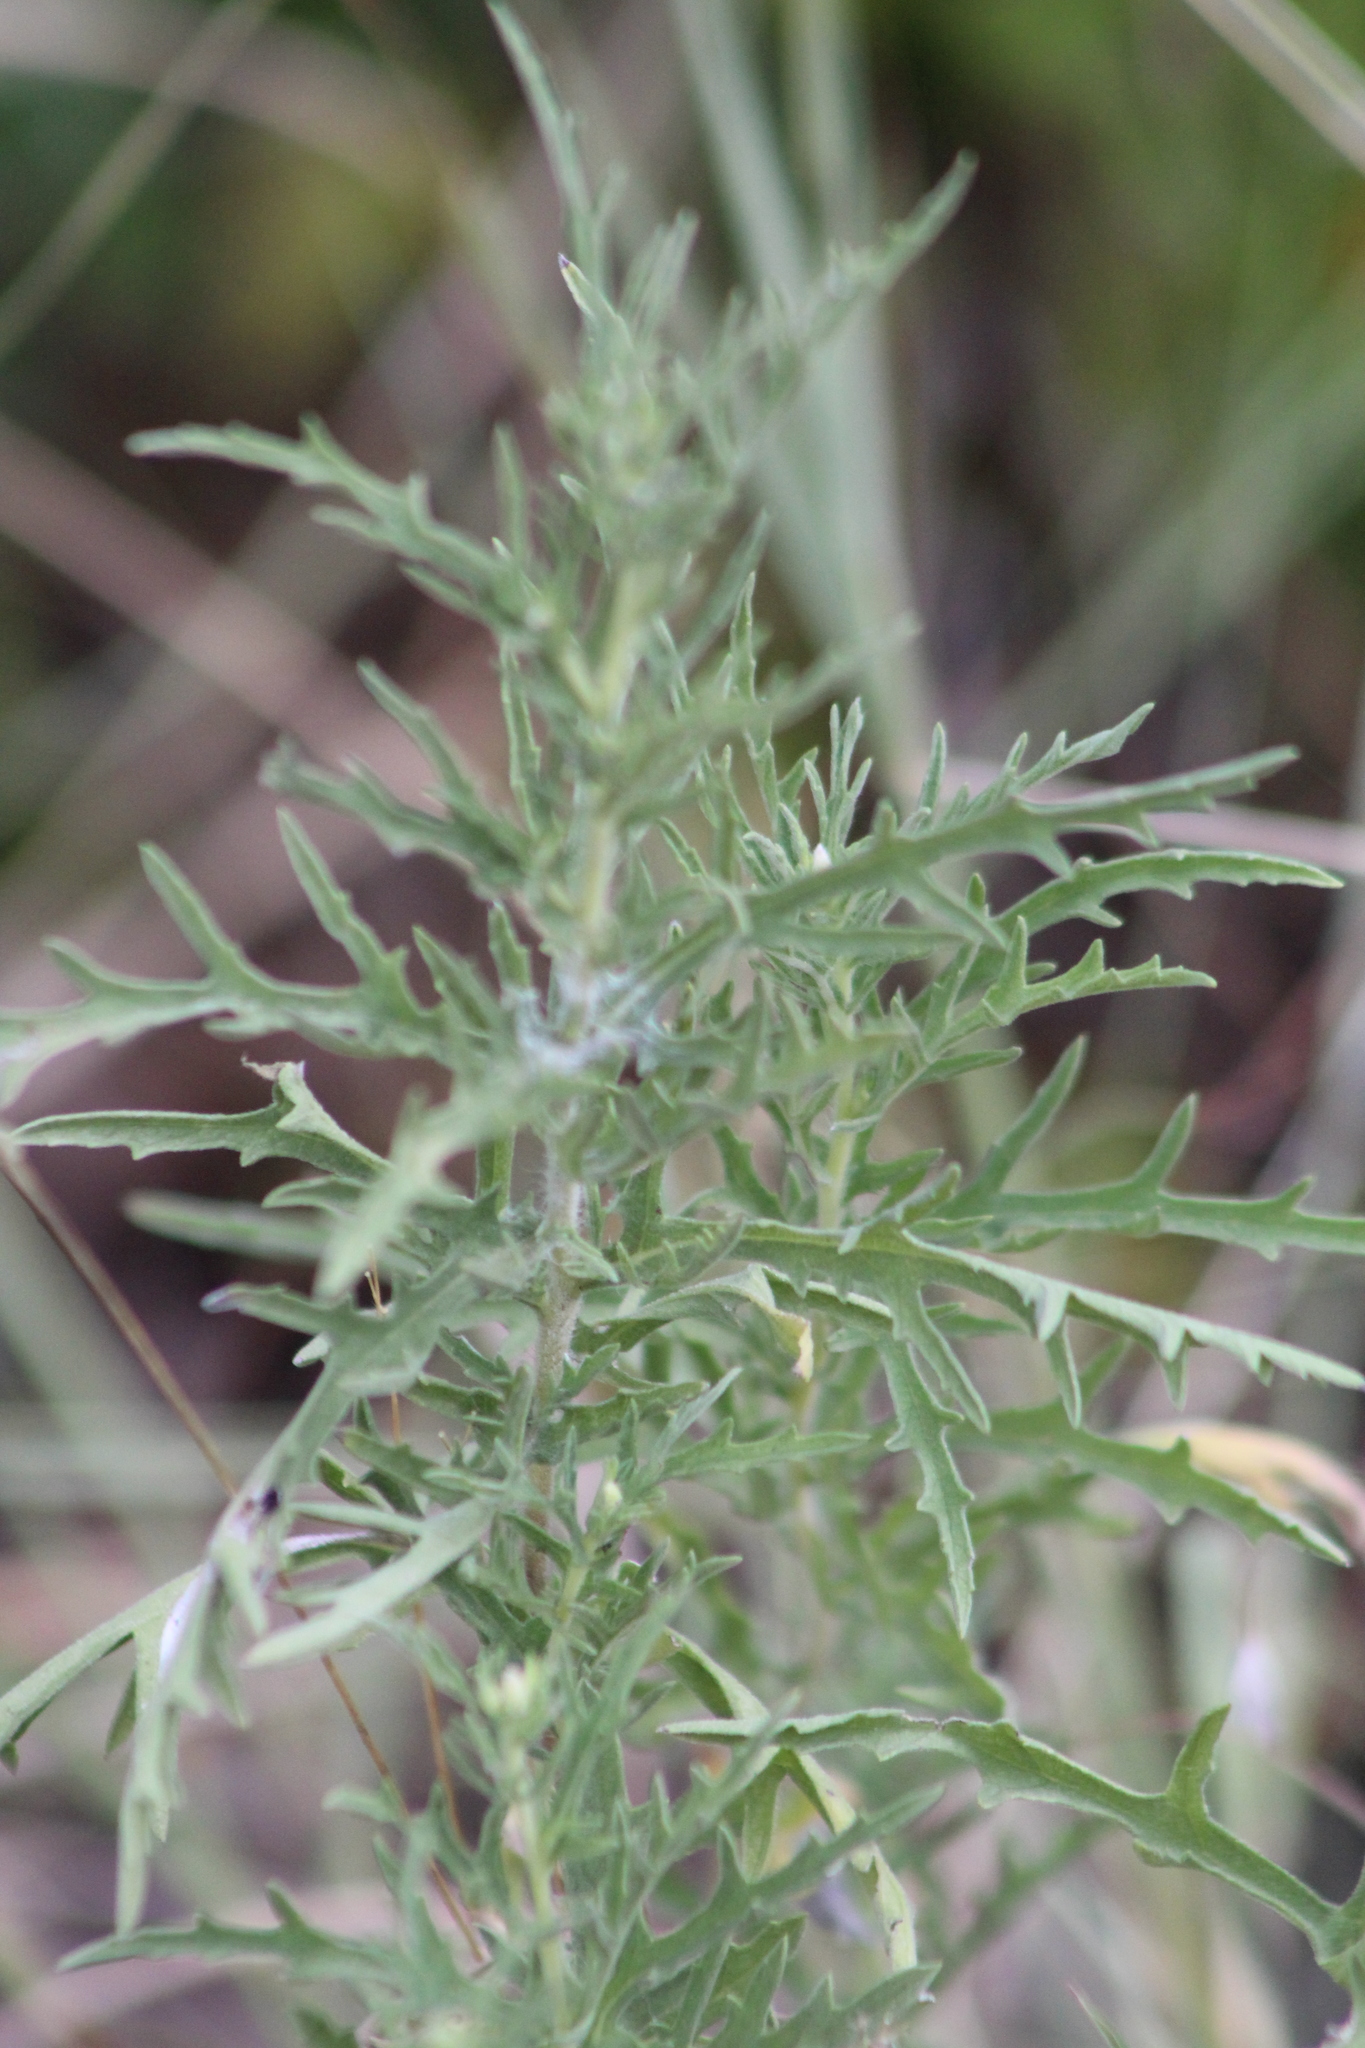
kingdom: Plantae
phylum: Tracheophyta
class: Magnoliopsida
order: Asterales
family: Asteraceae
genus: Ambrosia
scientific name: Ambrosia psilostachya
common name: Perennial ragweed
